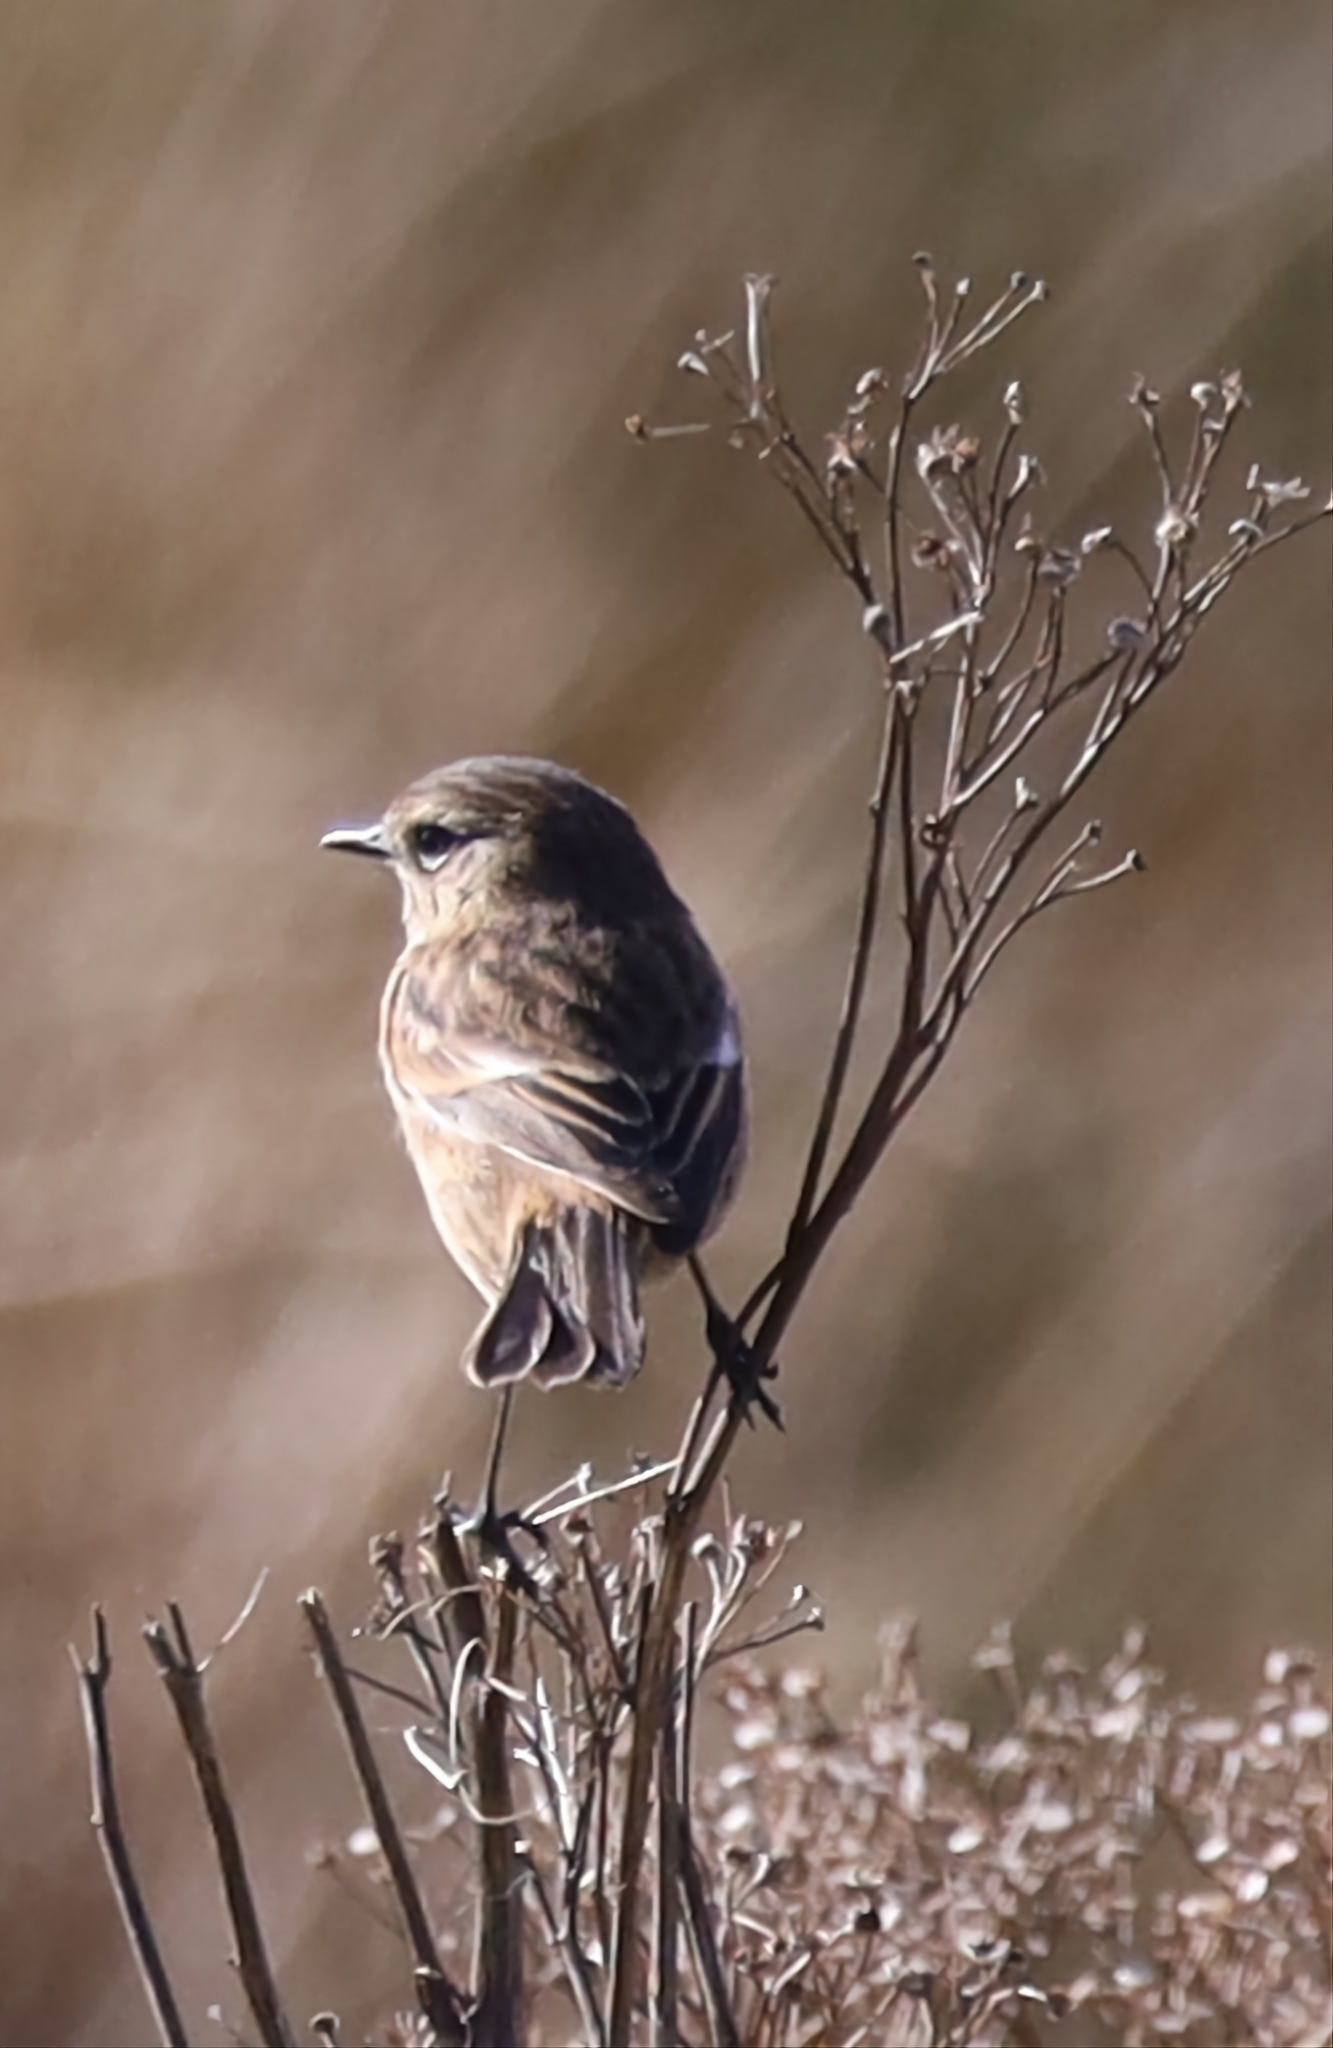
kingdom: Animalia
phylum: Chordata
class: Aves
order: Passeriformes
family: Muscicapidae
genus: Saxicola
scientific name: Saxicola rubicola
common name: European stonechat
